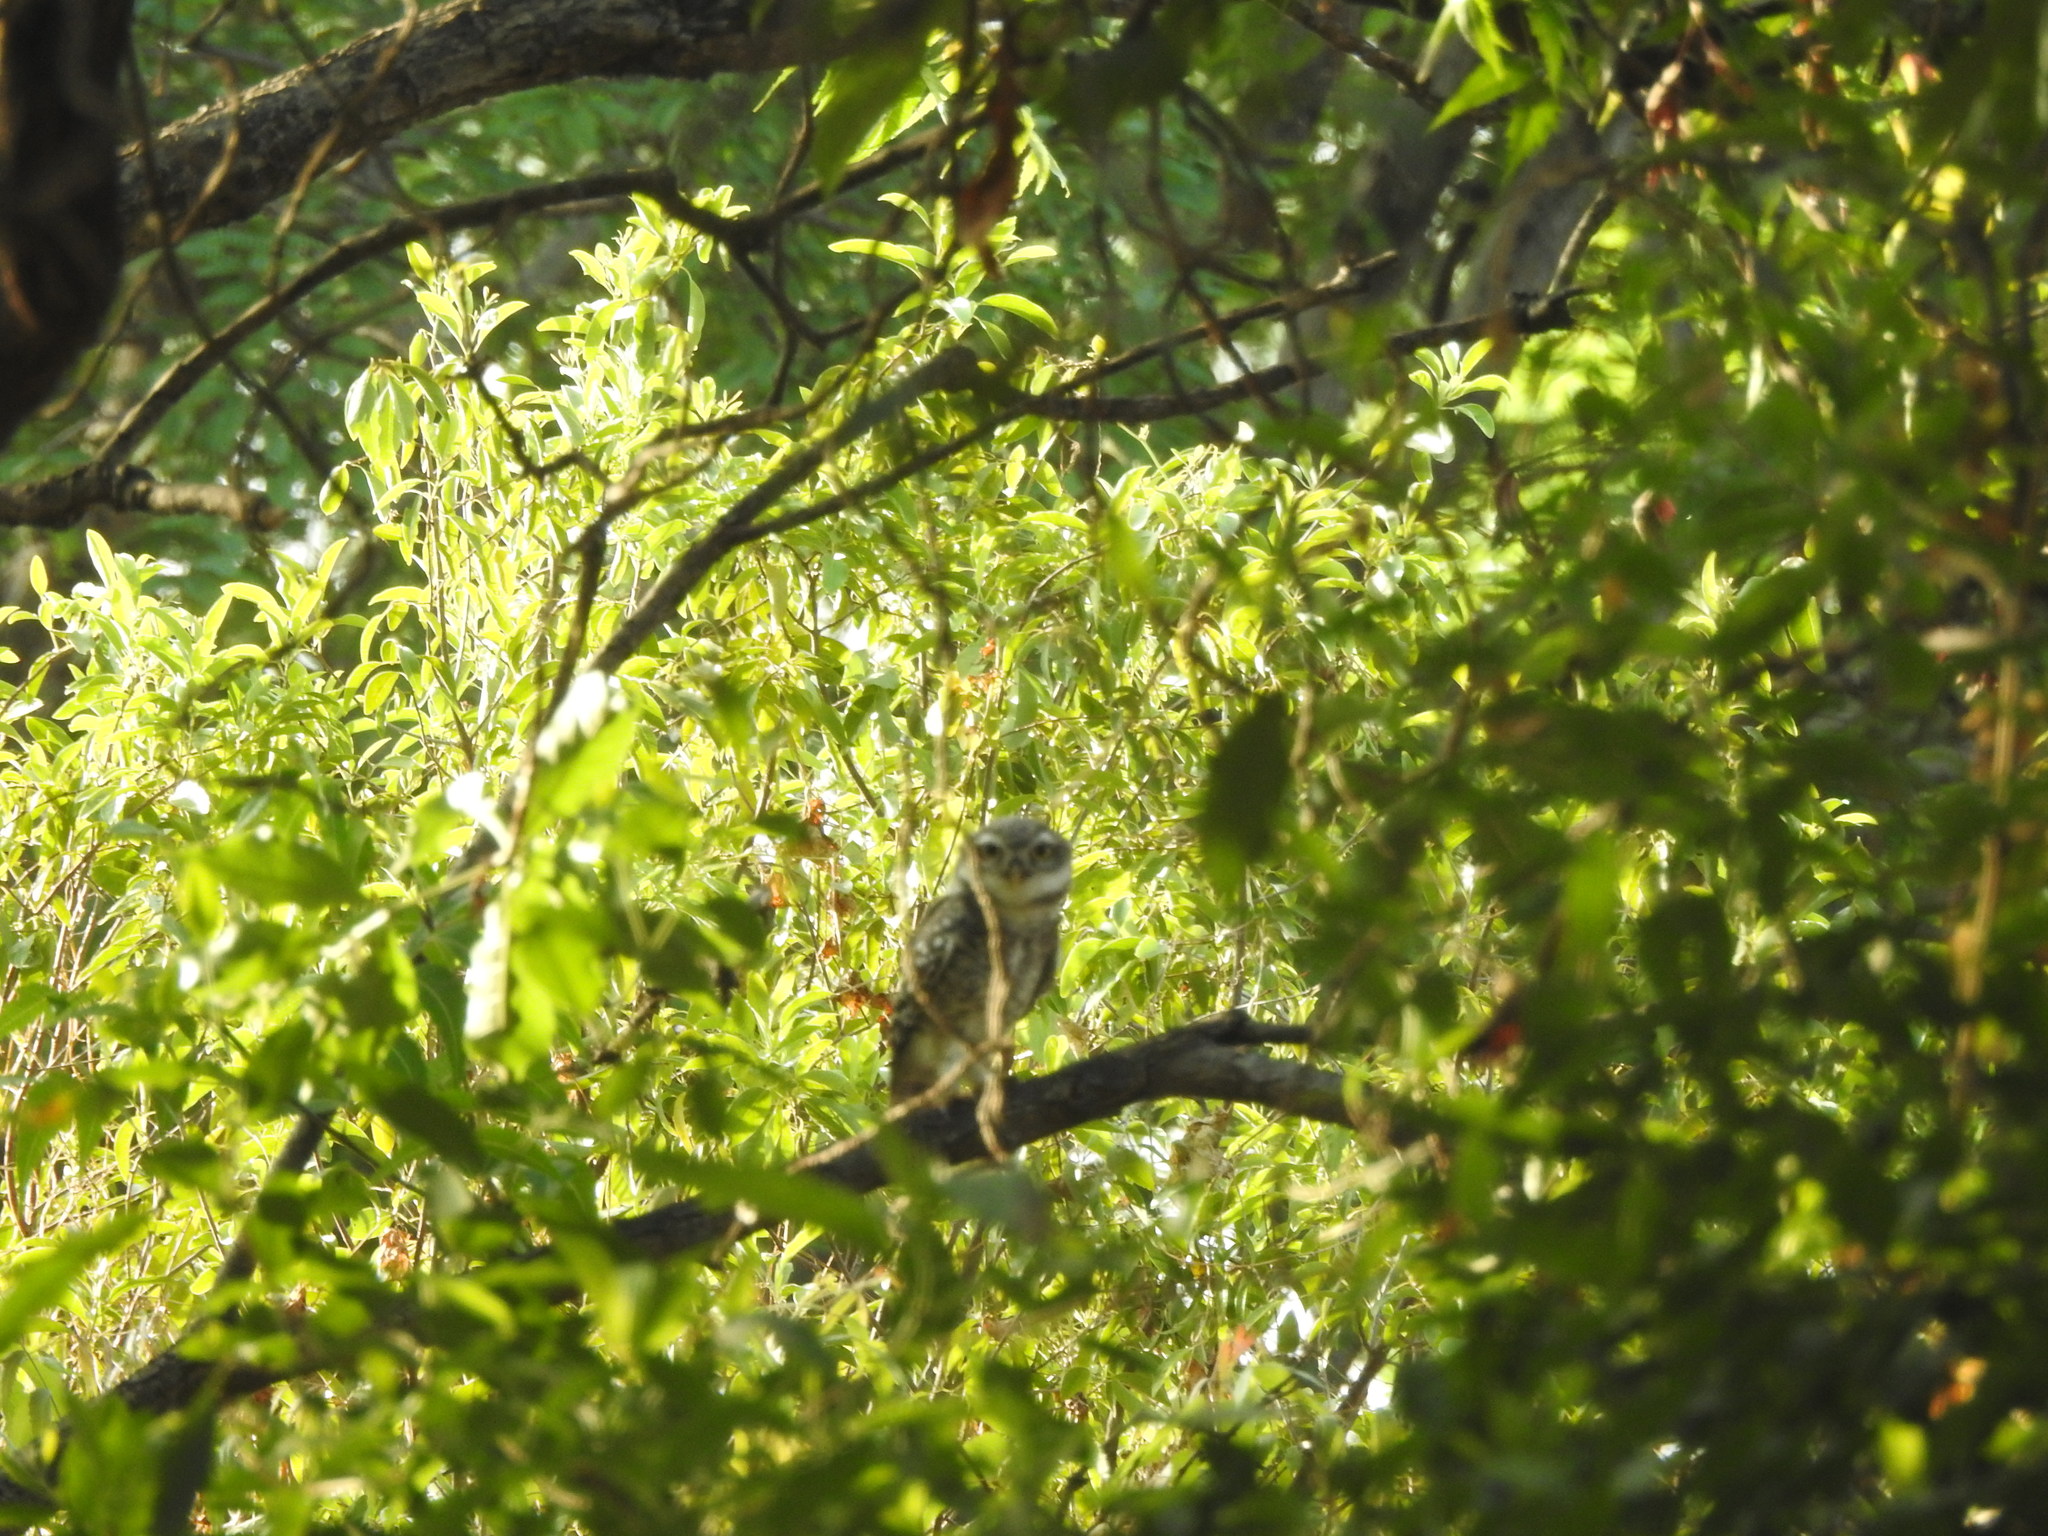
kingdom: Animalia
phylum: Chordata
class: Aves
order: Strigiformes
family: Strigidae
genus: Athene
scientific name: Athene brama
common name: Spotted owlet
